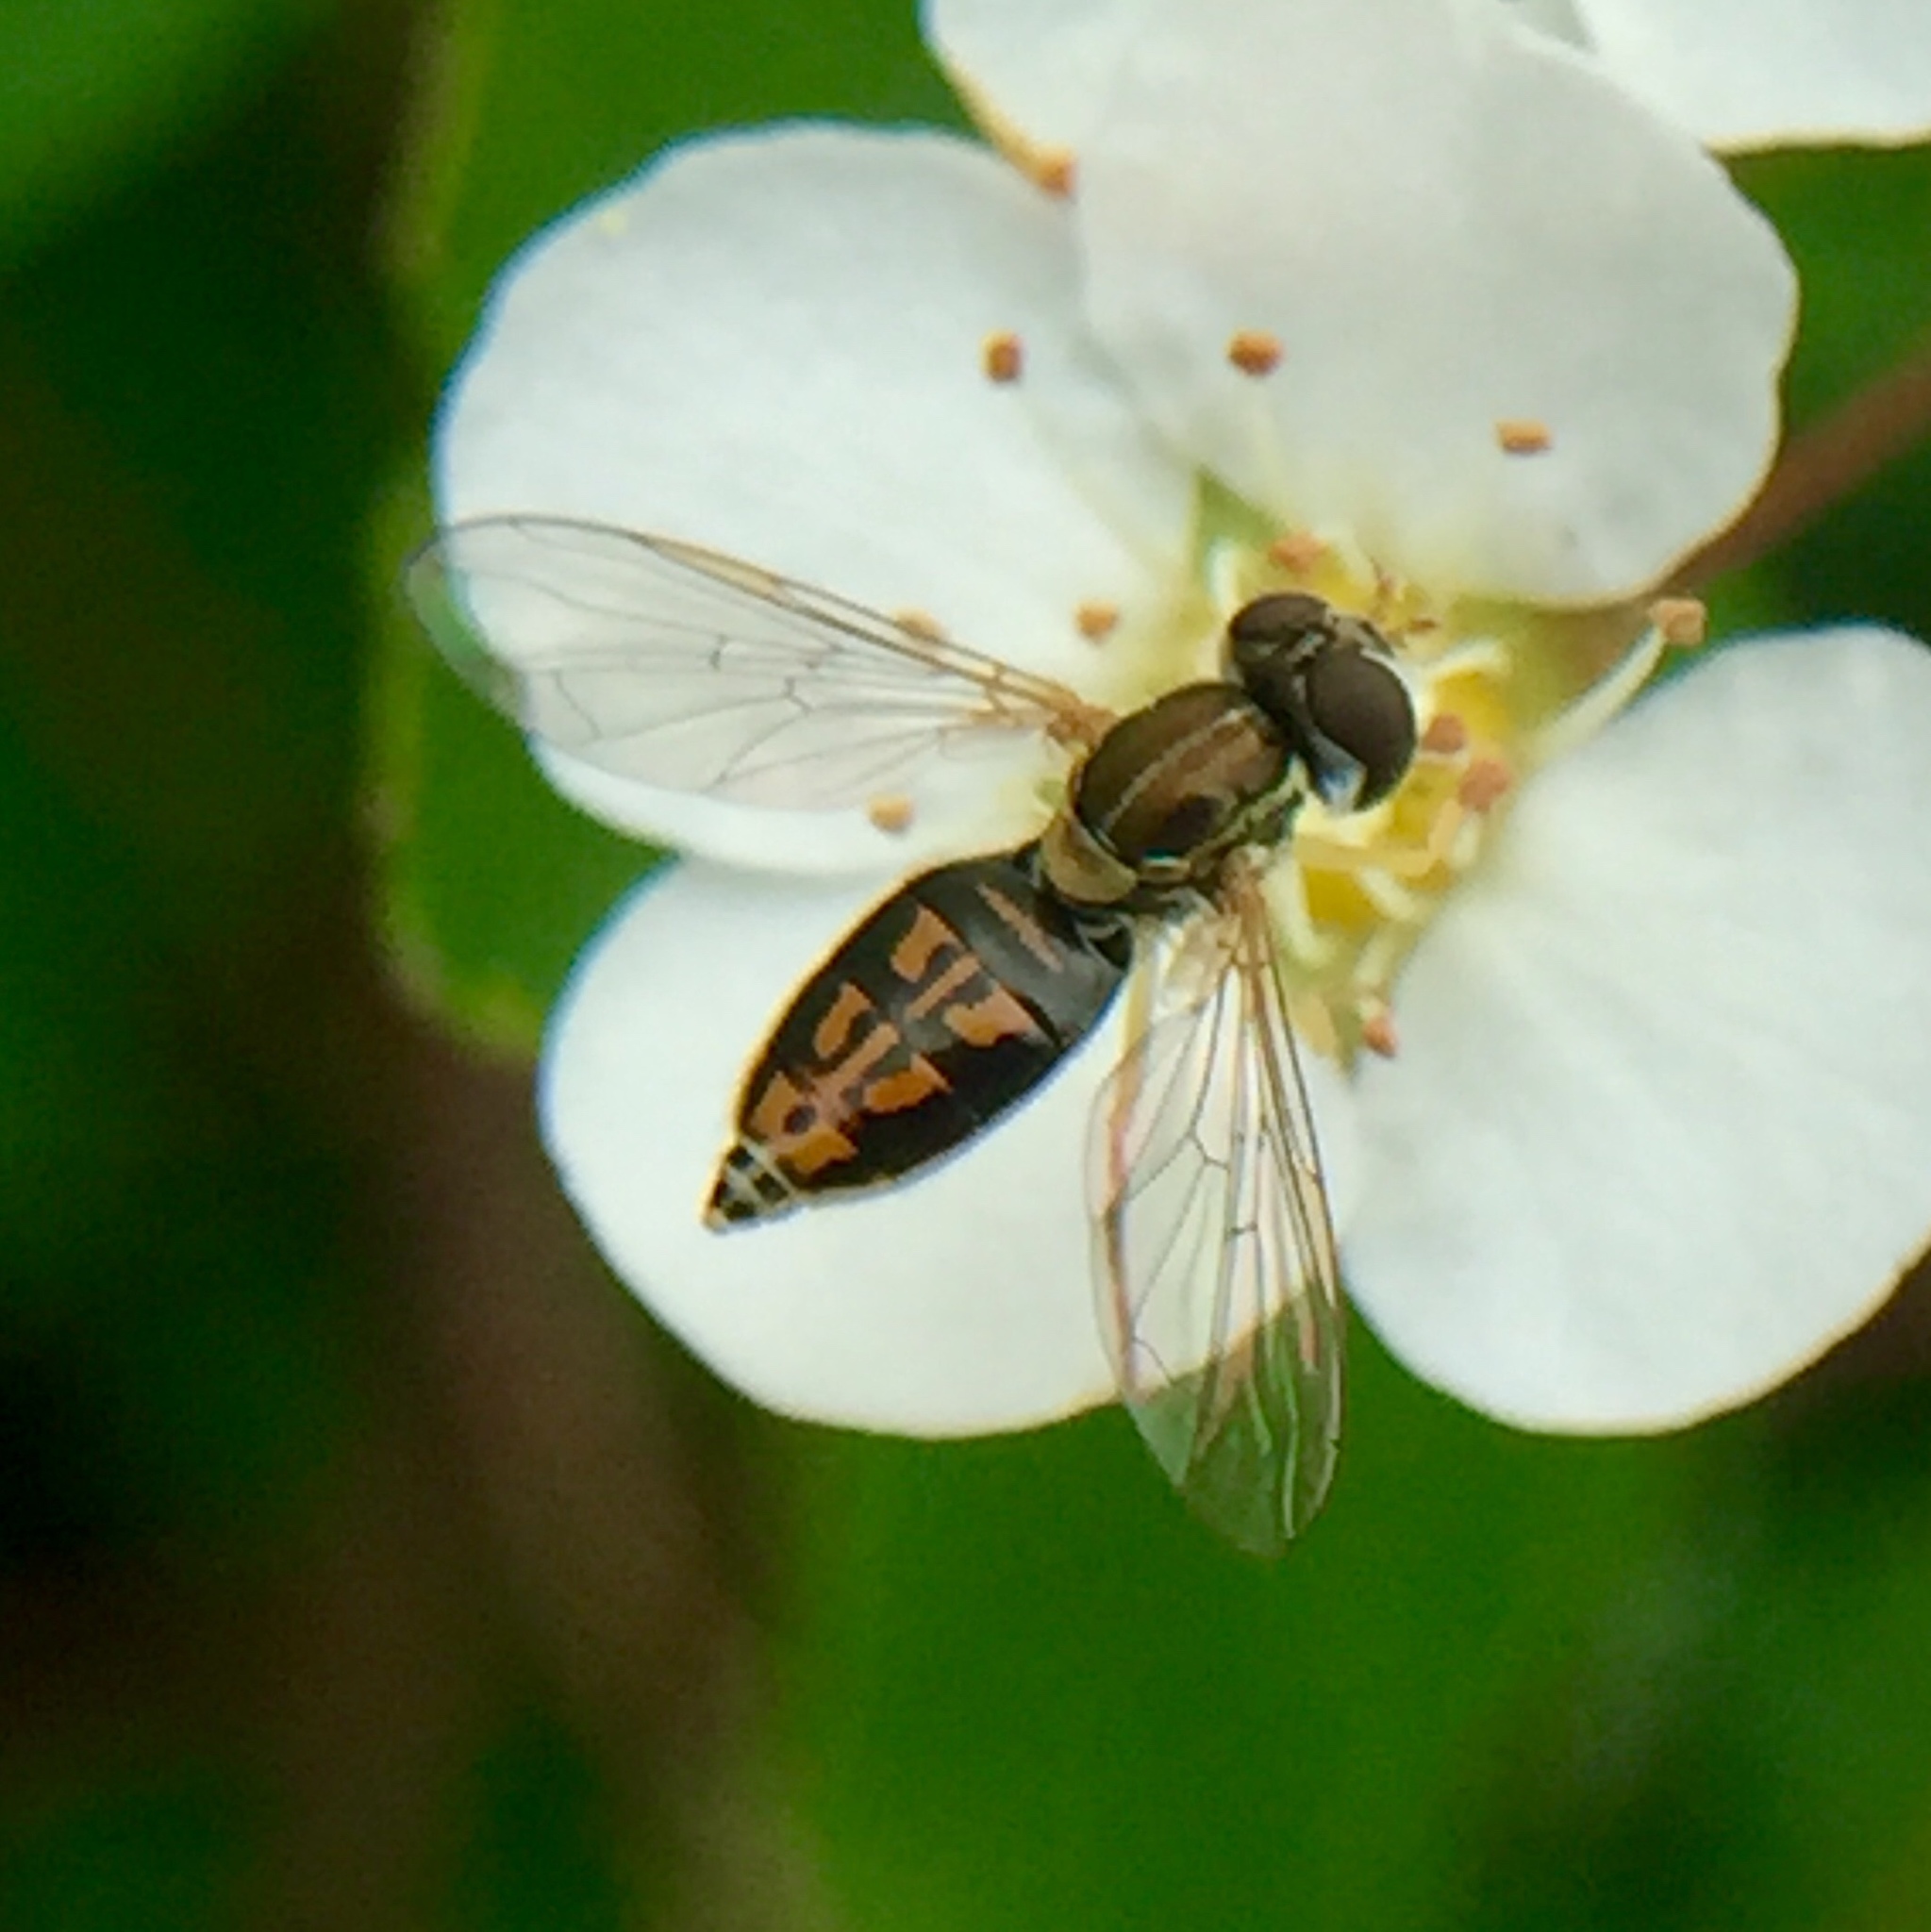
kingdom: Animalia
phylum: Arthropoda
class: Insecta
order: Diptera
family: Syrphidae
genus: Toxomerus
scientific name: Toxomerus marginatus
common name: Syrphid fly
